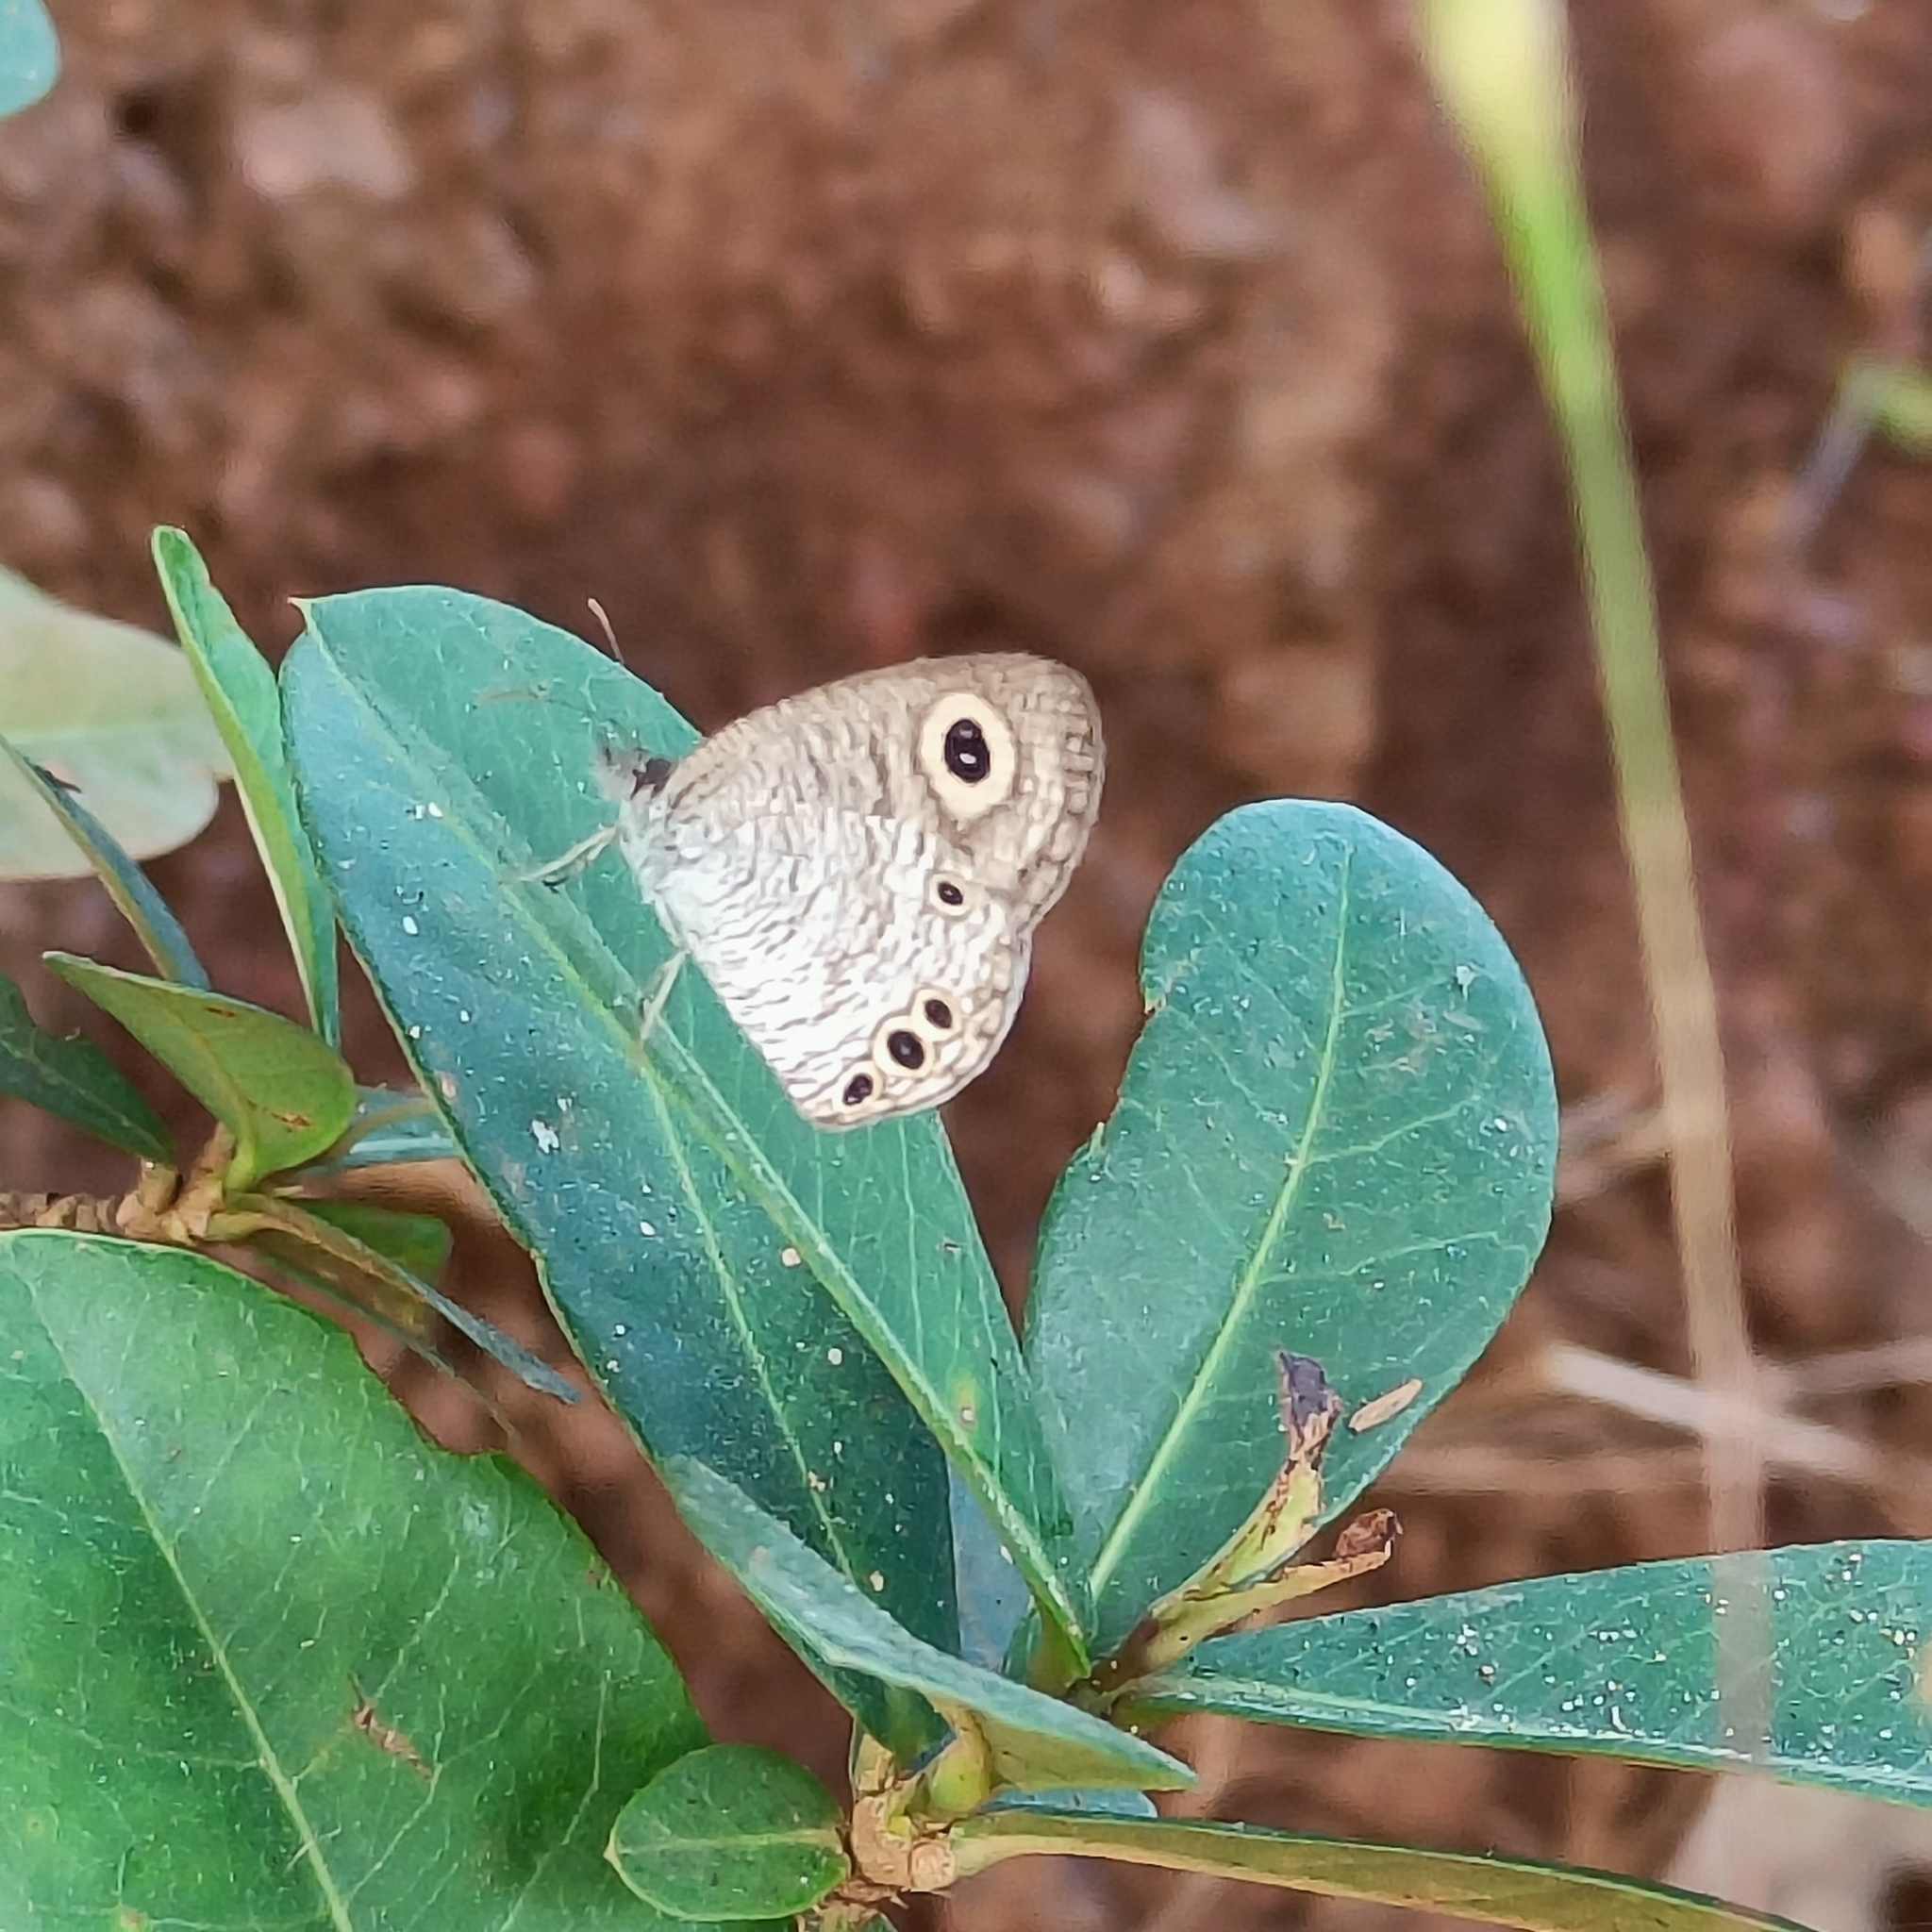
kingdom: Animalia
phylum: Arthropoda
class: Insecta
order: Lepidoptera
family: Nymphalidae
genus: Ypthima
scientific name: Ypthima huebneri
